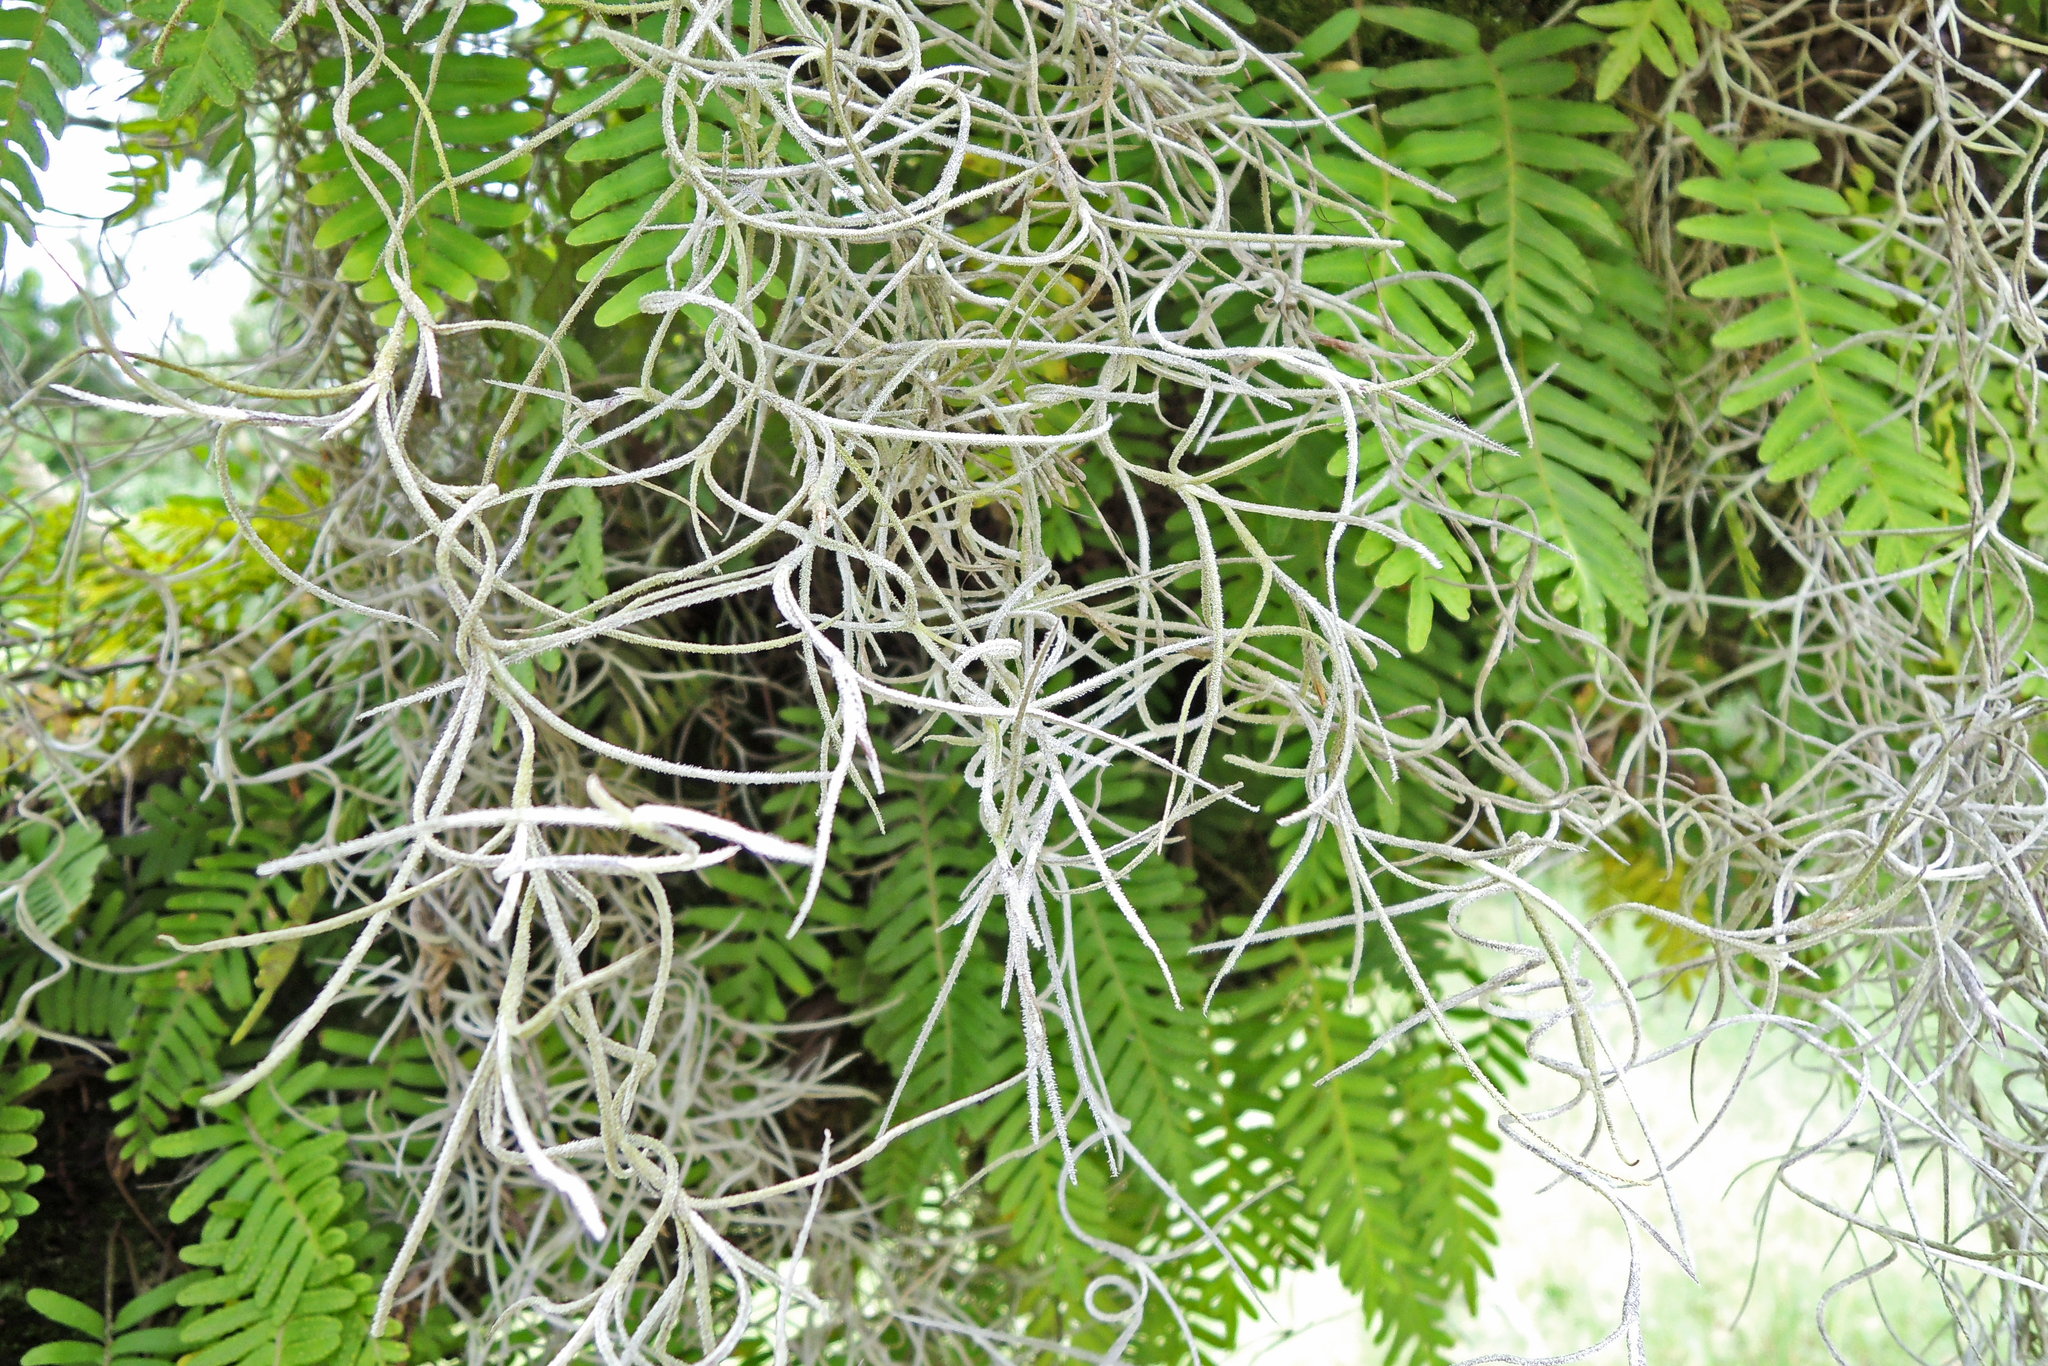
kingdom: Plantae
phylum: Tracheophyta
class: Liliopsida
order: Poales
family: Bromeliaceae
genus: Tillandsia
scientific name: Tillandsia usneoides
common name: Spanish moss
